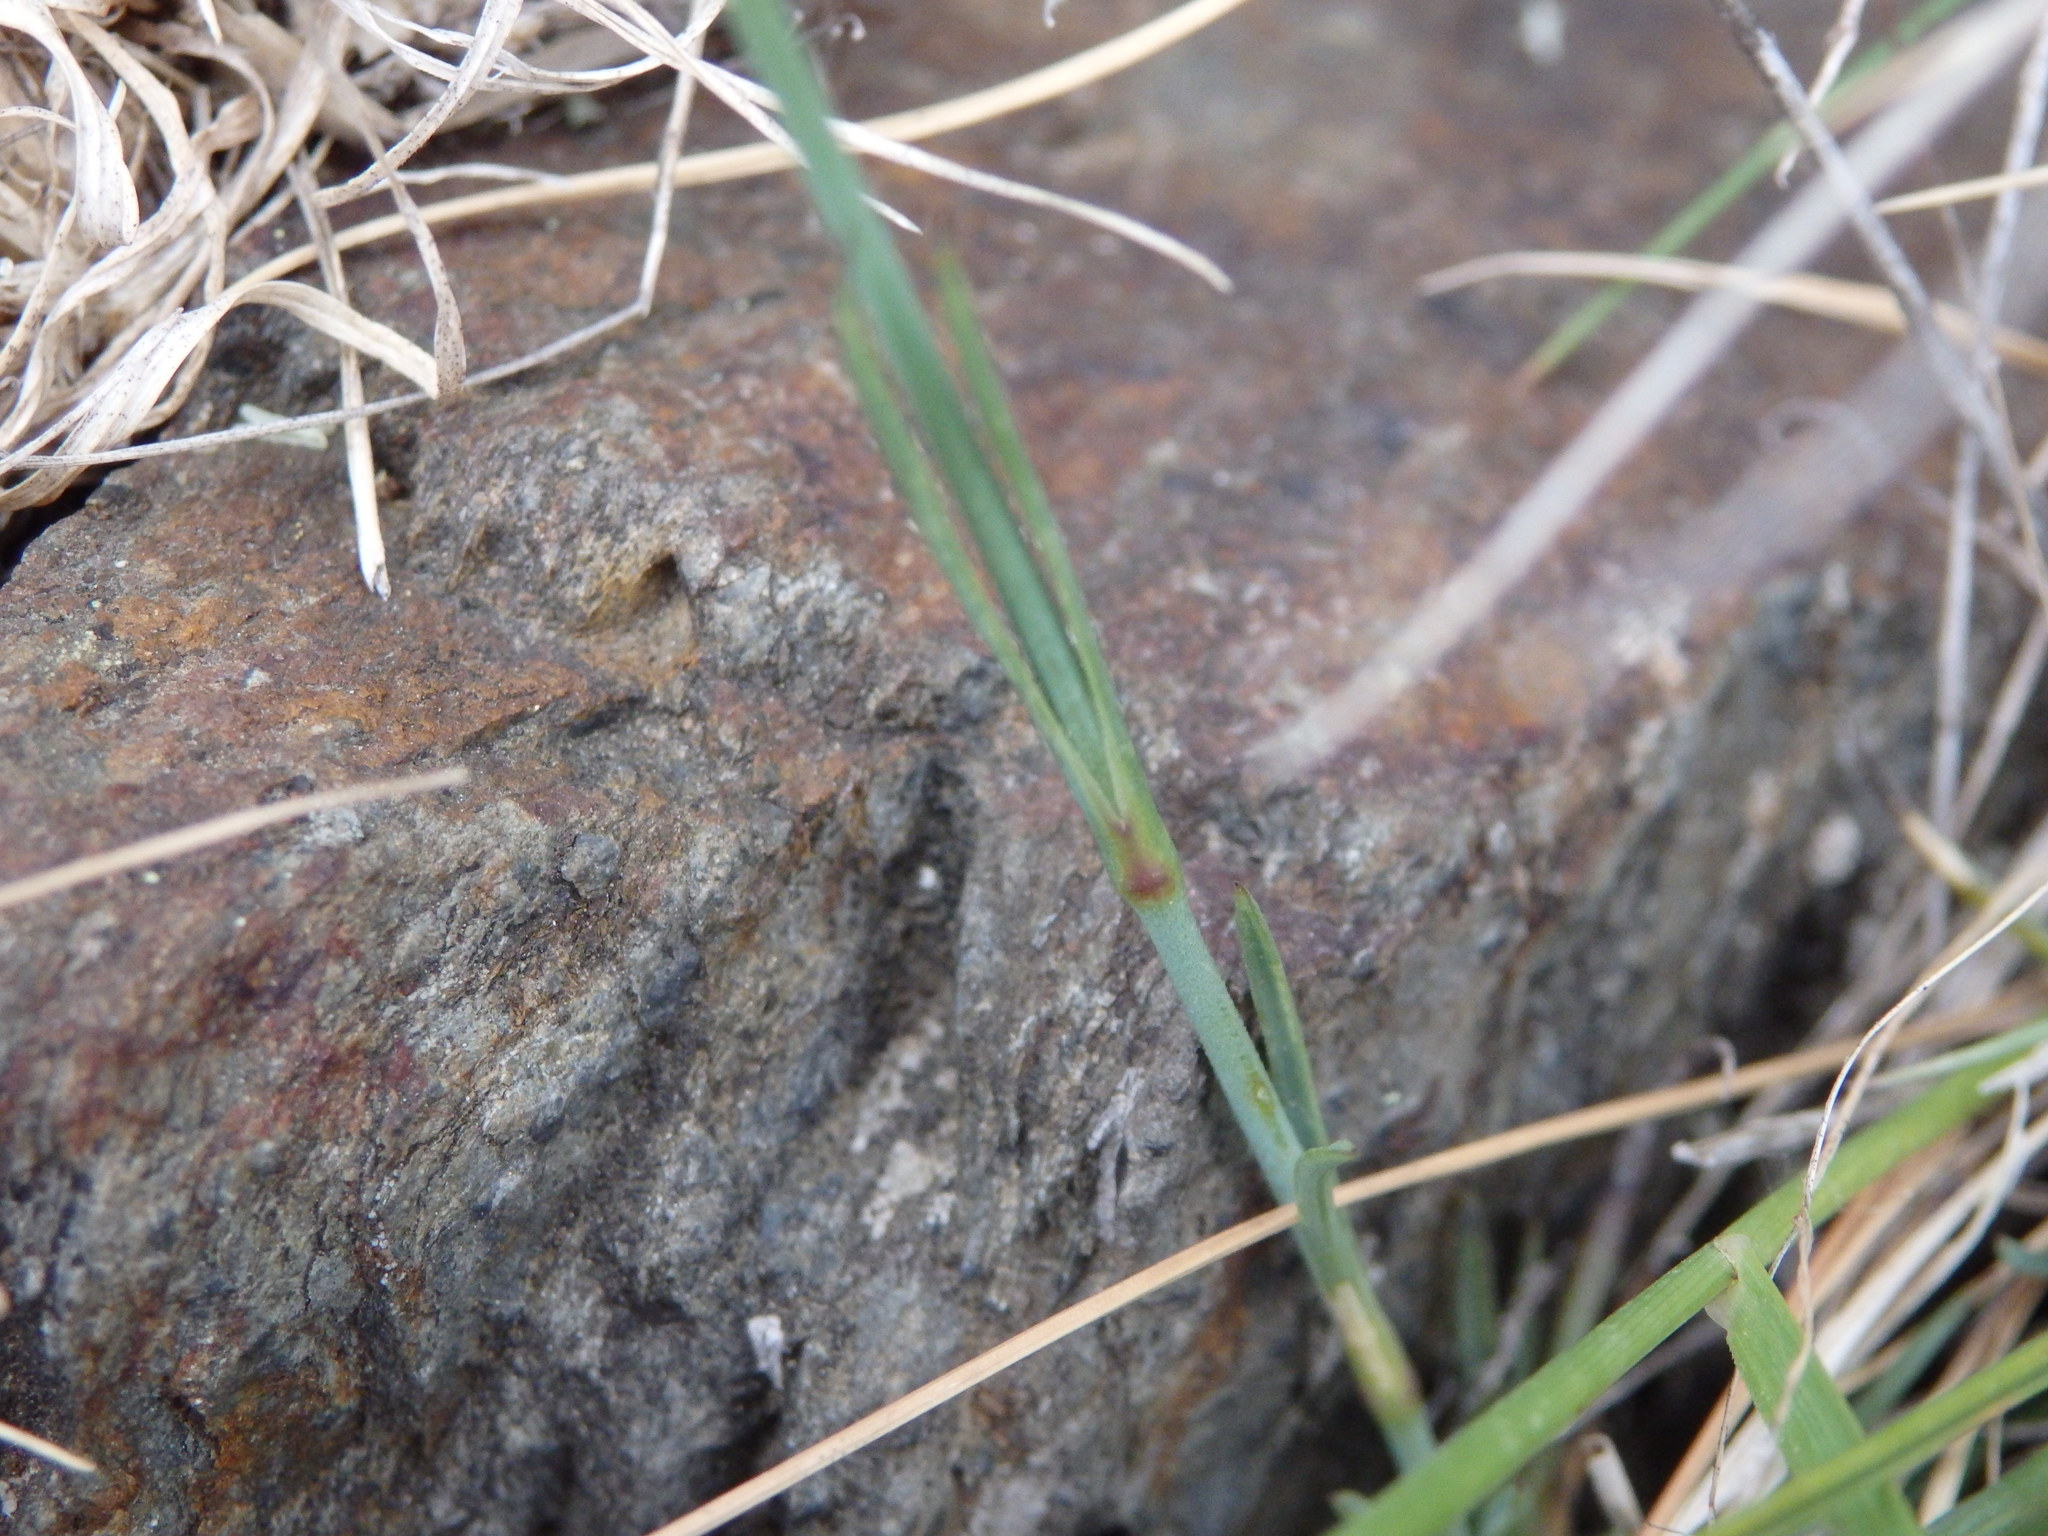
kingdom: Plantae
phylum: Tracheophyta
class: Magnoliopsida
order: Caryophyllales
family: Caryophyllaceae
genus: Dianthus
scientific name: Dianthus lusitanus
